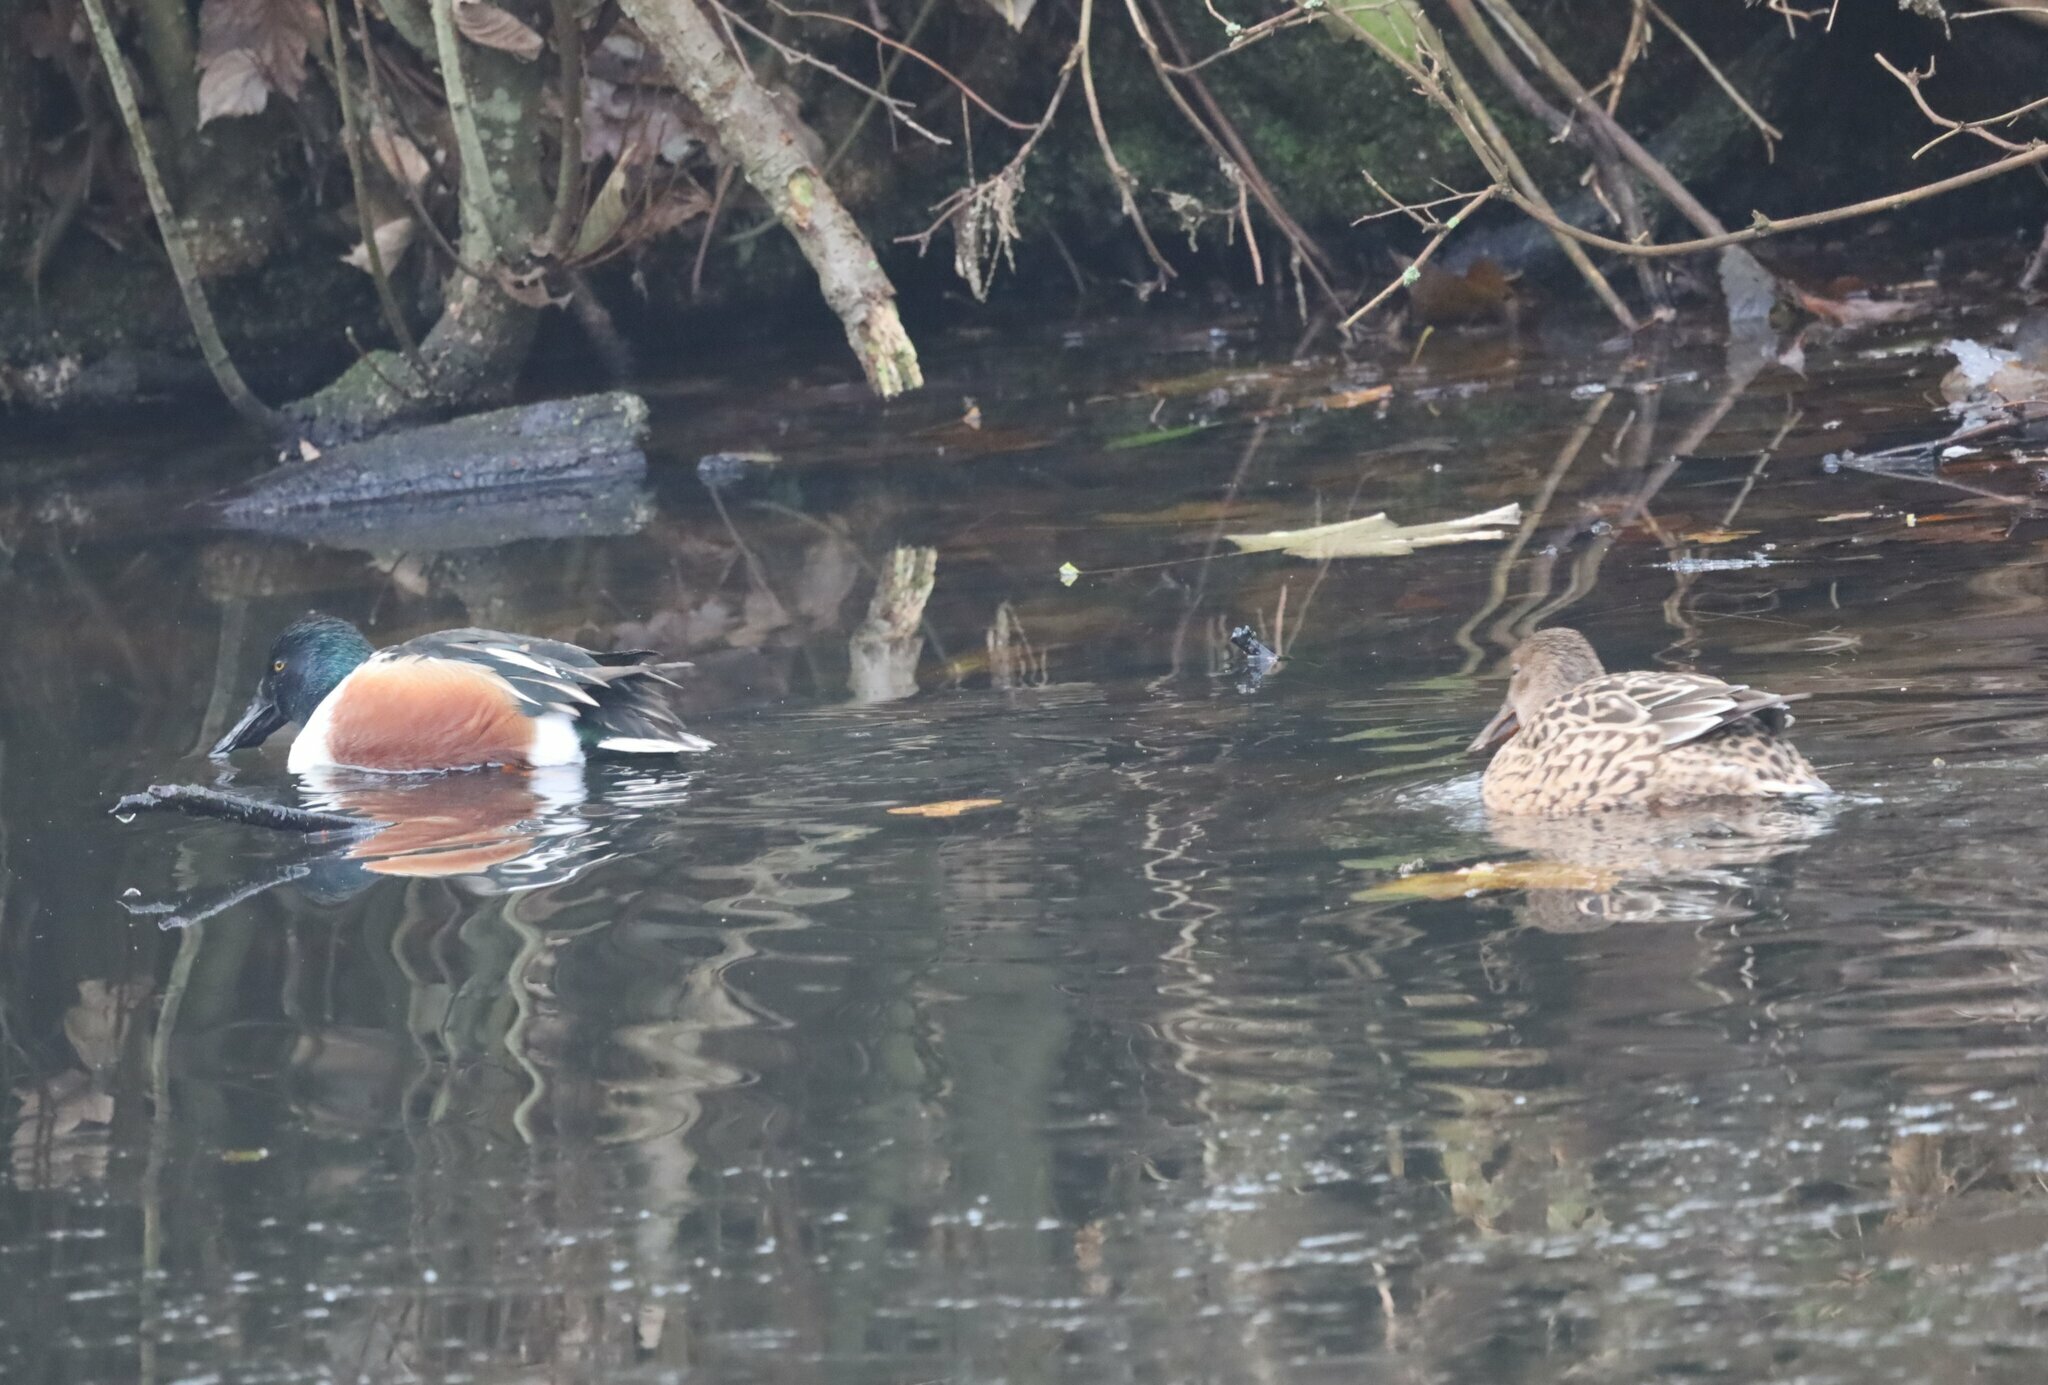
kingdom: Animalia
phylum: Chordata
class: Aves
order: Anseriformes
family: Anatidae
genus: Spatula
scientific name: Spatula clypeata
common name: Northern shoveler
